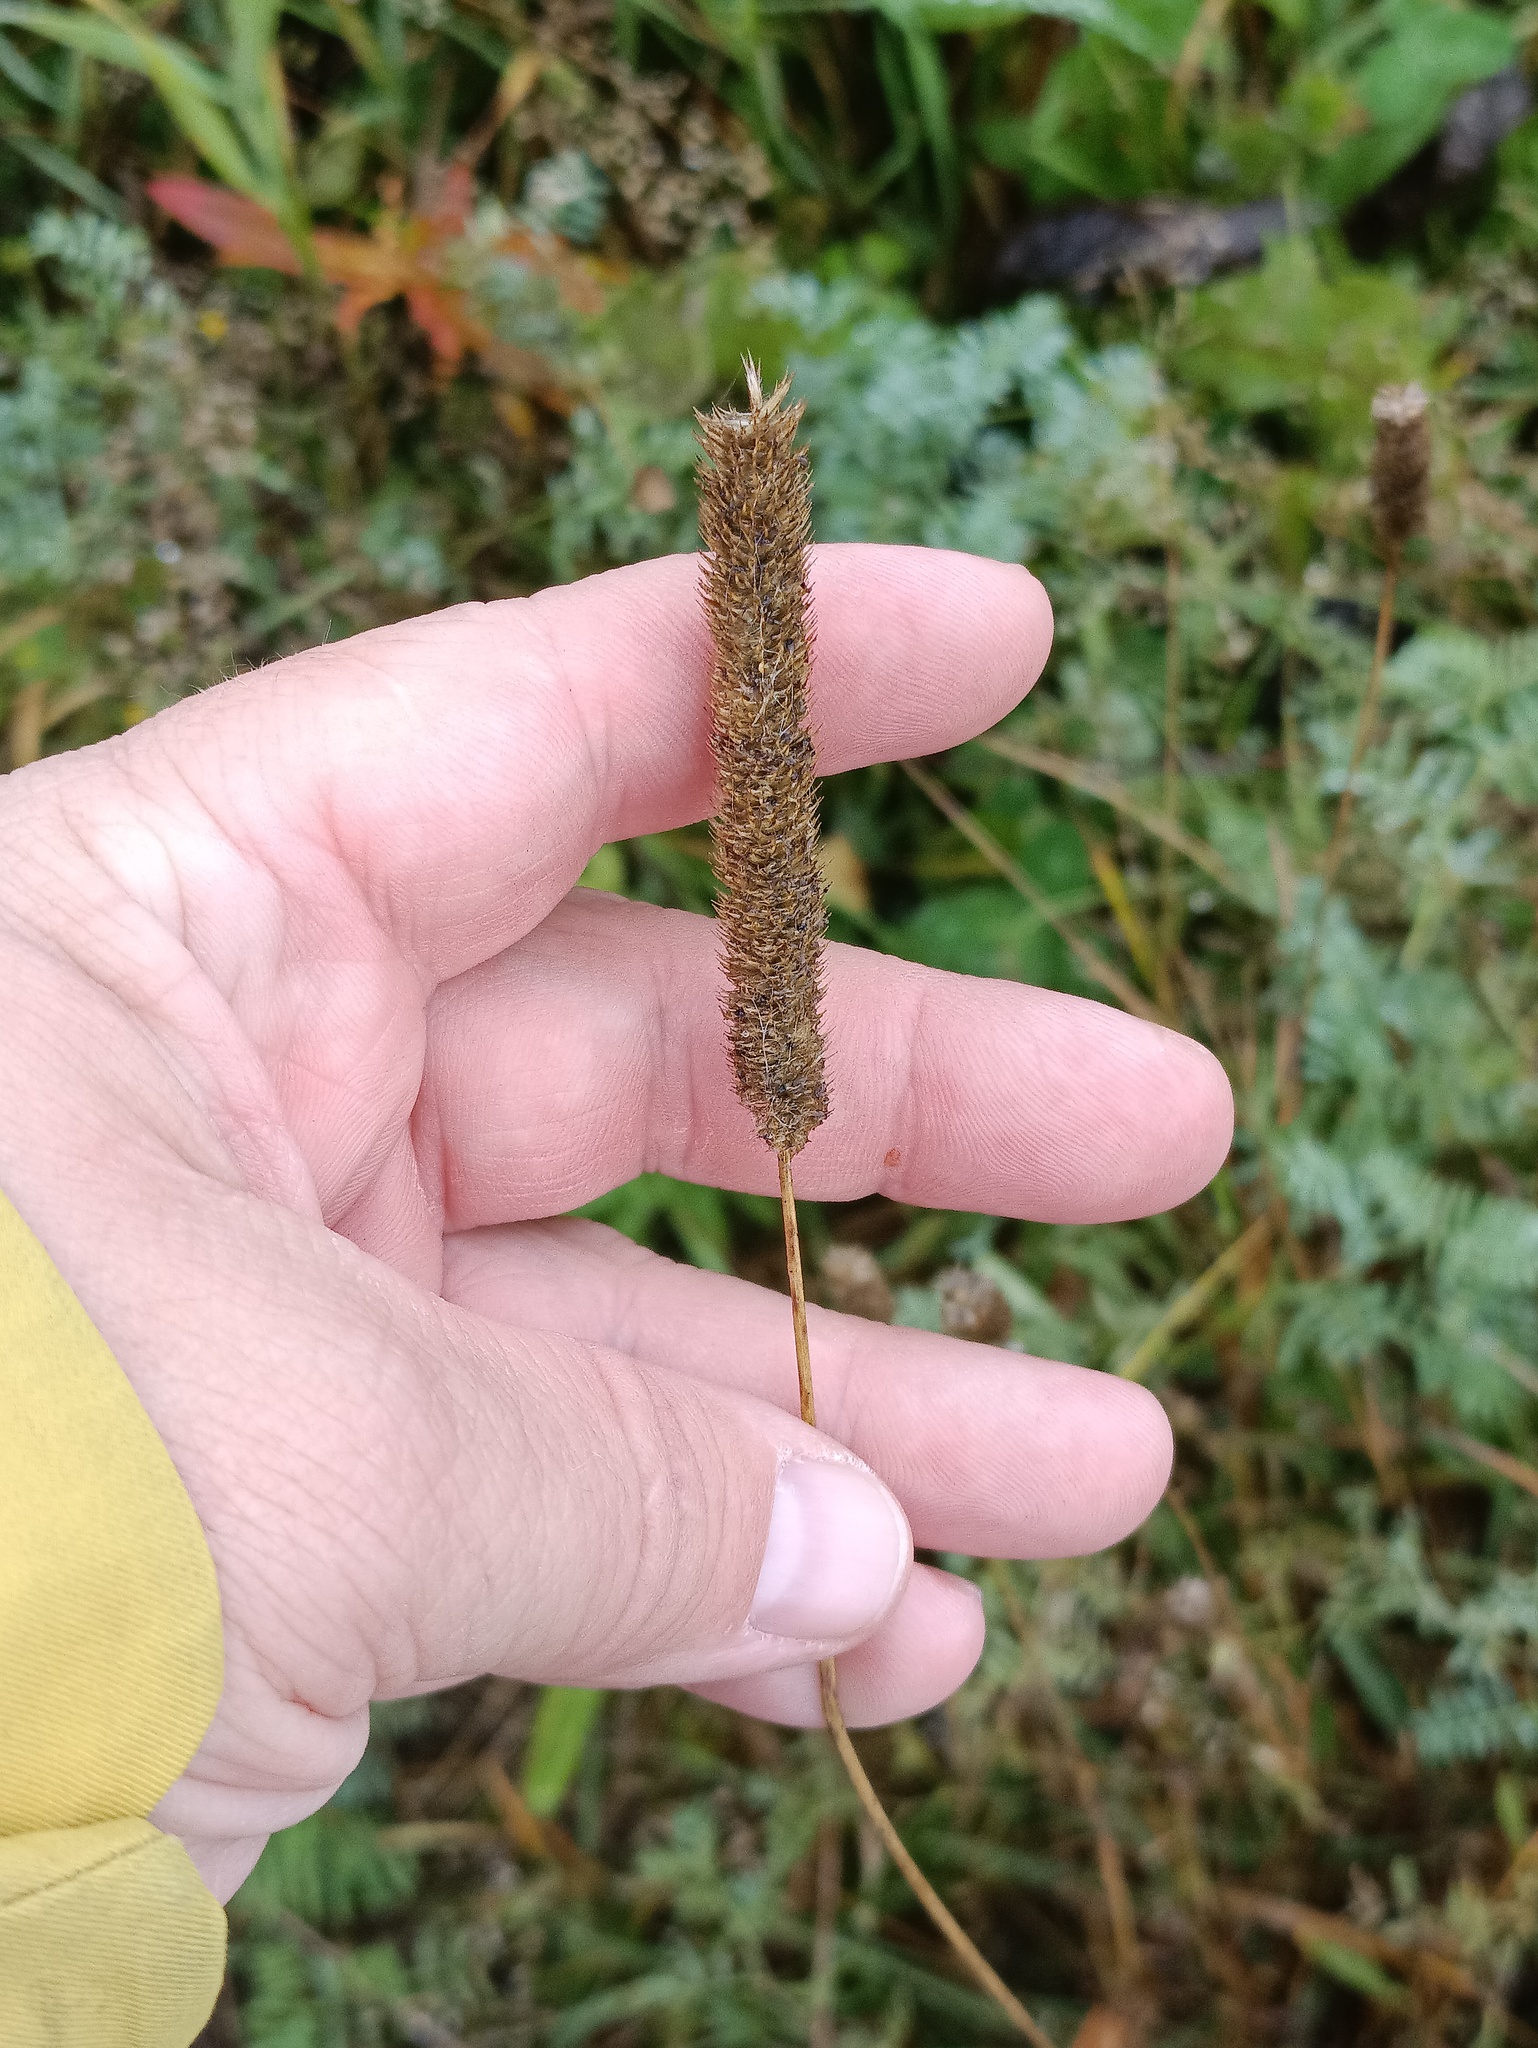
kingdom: Plantae
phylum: Tracheophyta
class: Liliopsida
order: Poales
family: Poaceae
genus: Phleum
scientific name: Phleum pratense
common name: Timothy grass
